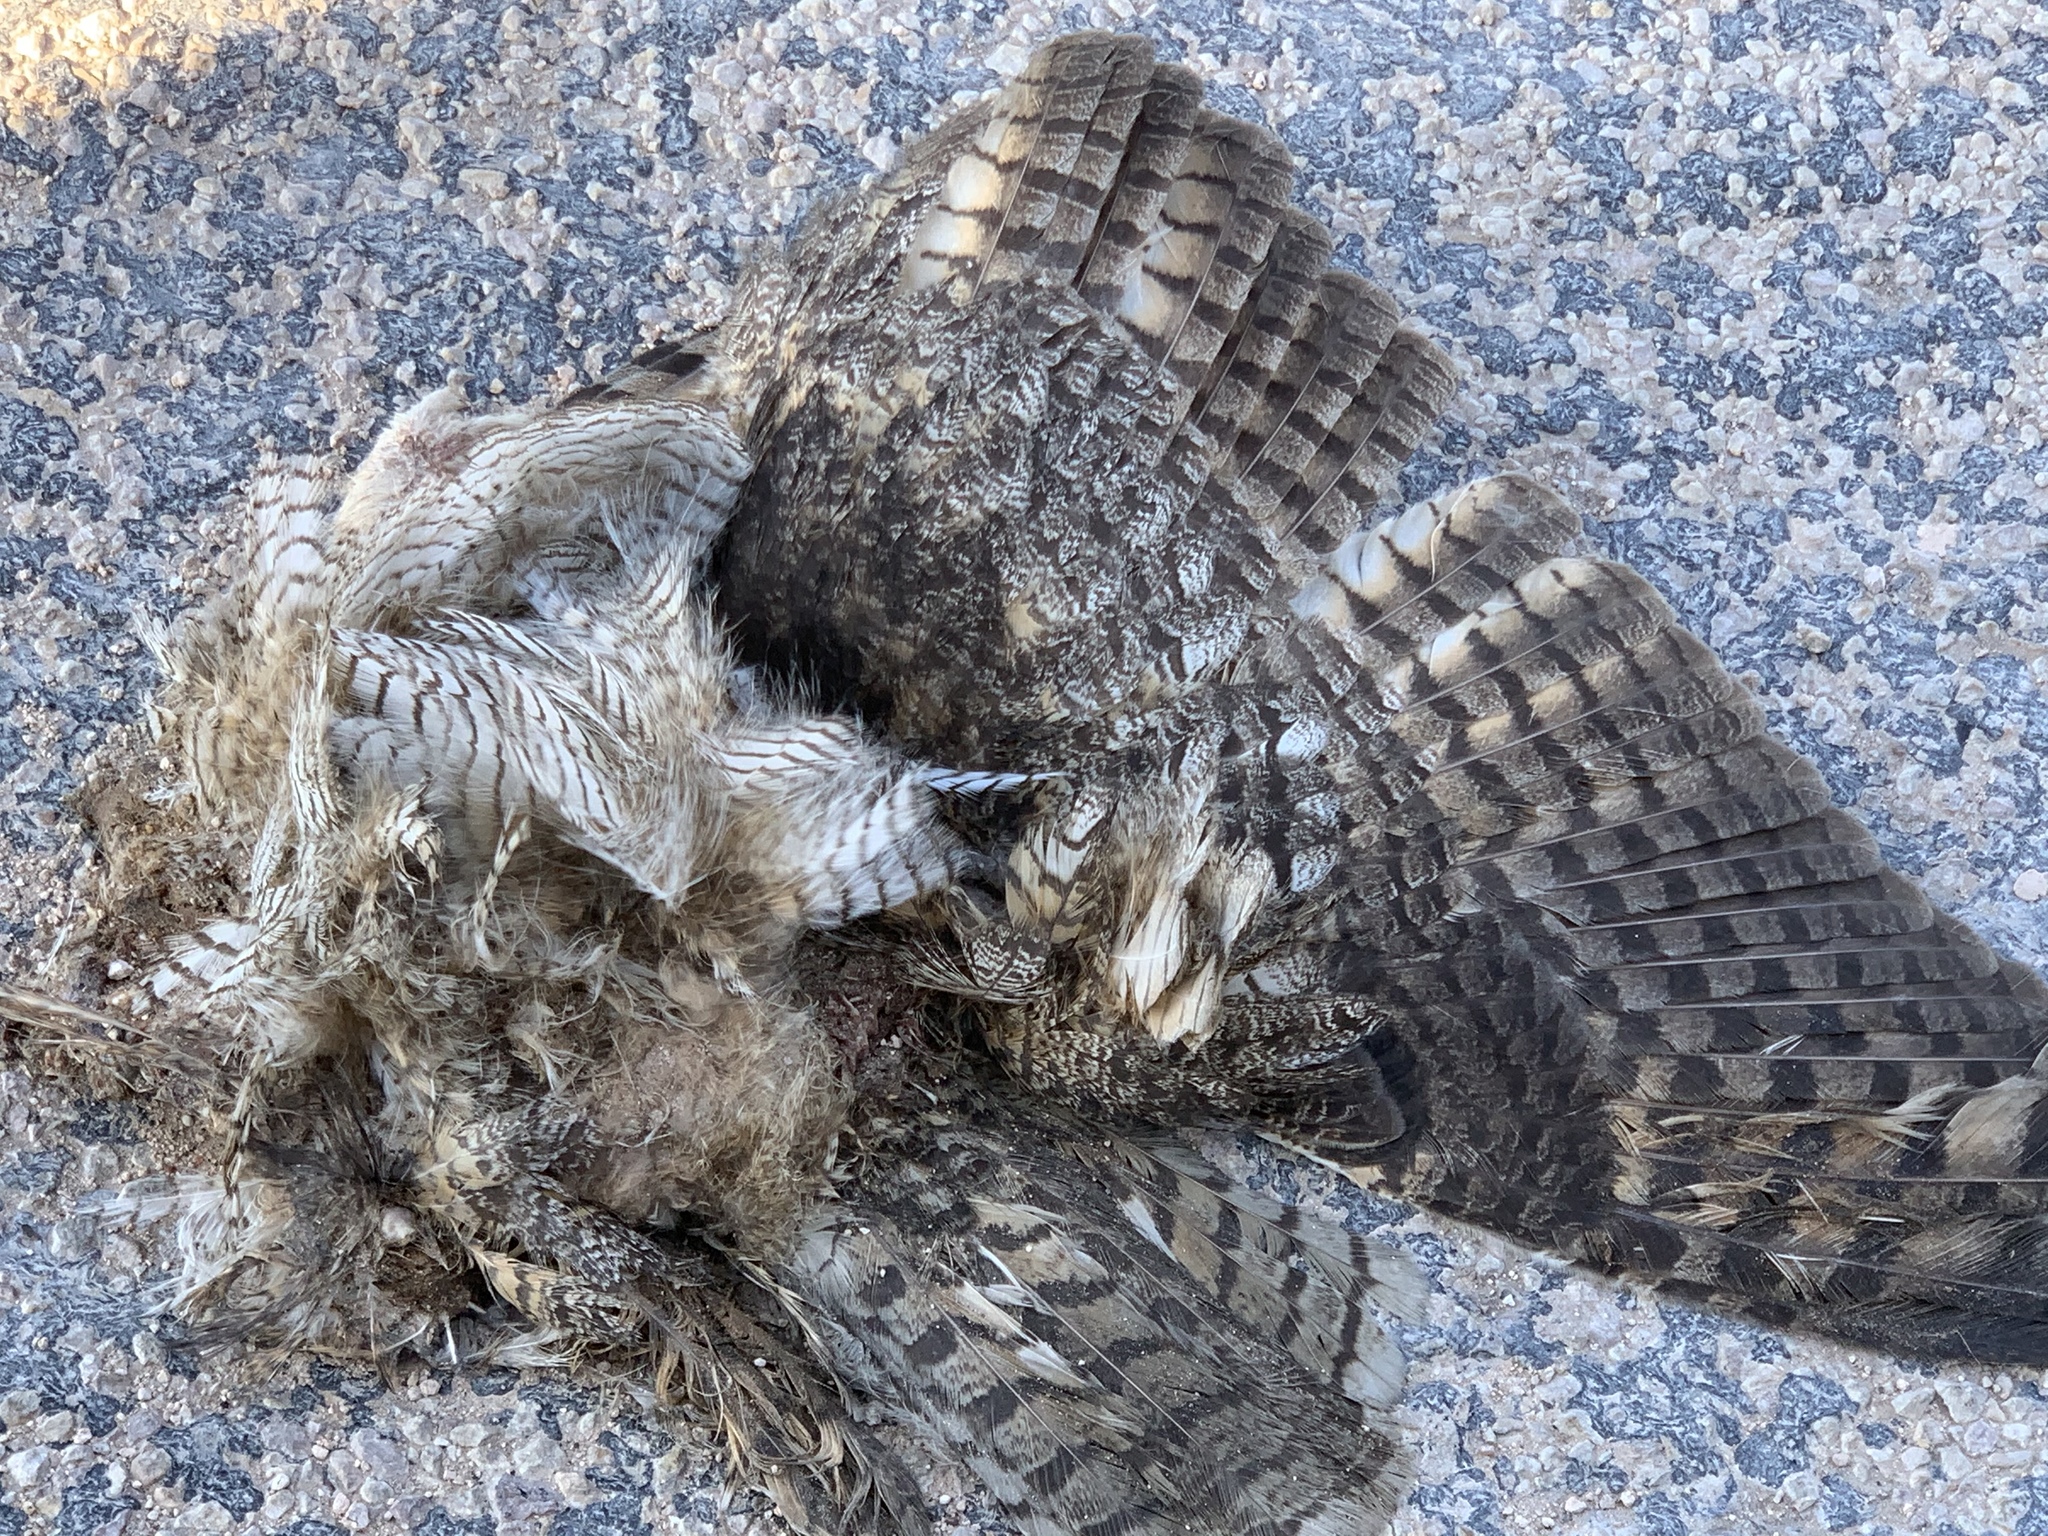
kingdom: Animalia
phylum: Chordata
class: Aves
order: Strigiformes
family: Strigidae
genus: Bubo
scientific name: Bubo virginianus
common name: Great horned owl
